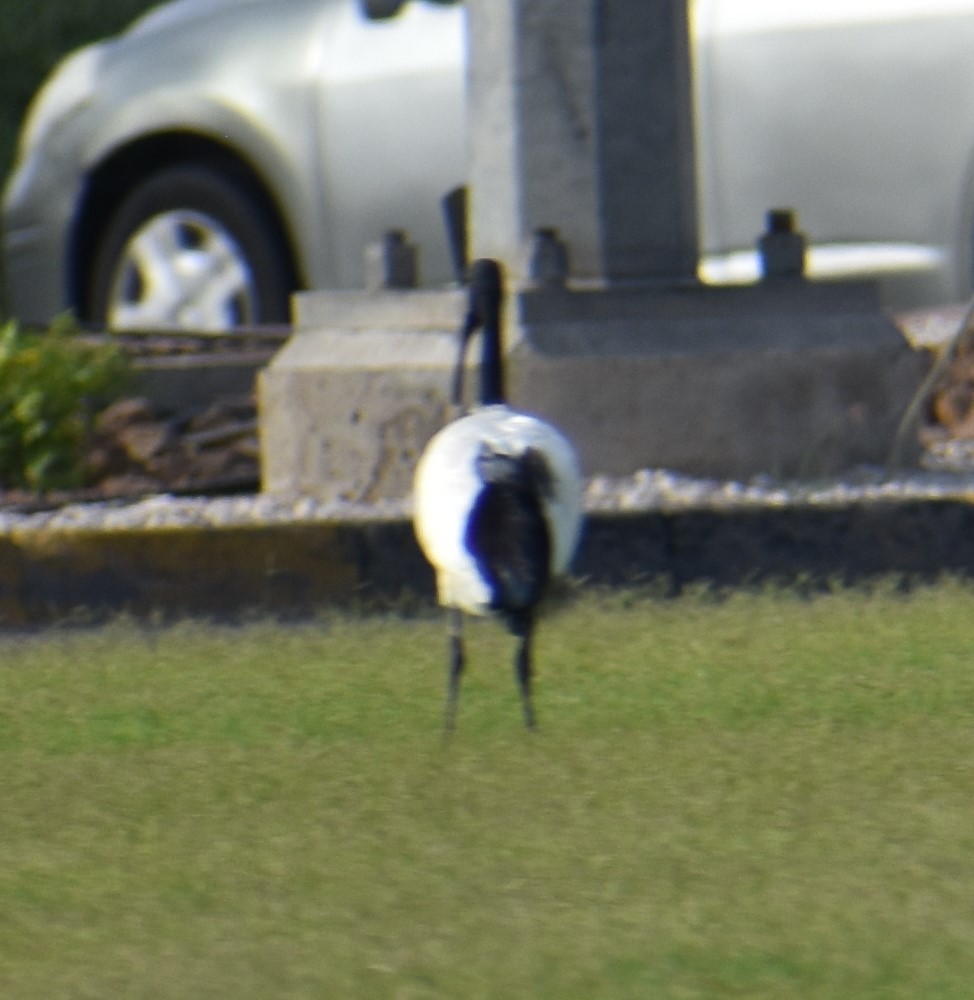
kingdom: Animalia
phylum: Chordata
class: Aves
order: Pelecaniformes
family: Threskiornithidae
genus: Threskiornis
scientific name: Threskiornis aethiopicus
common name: Sacred ibis
